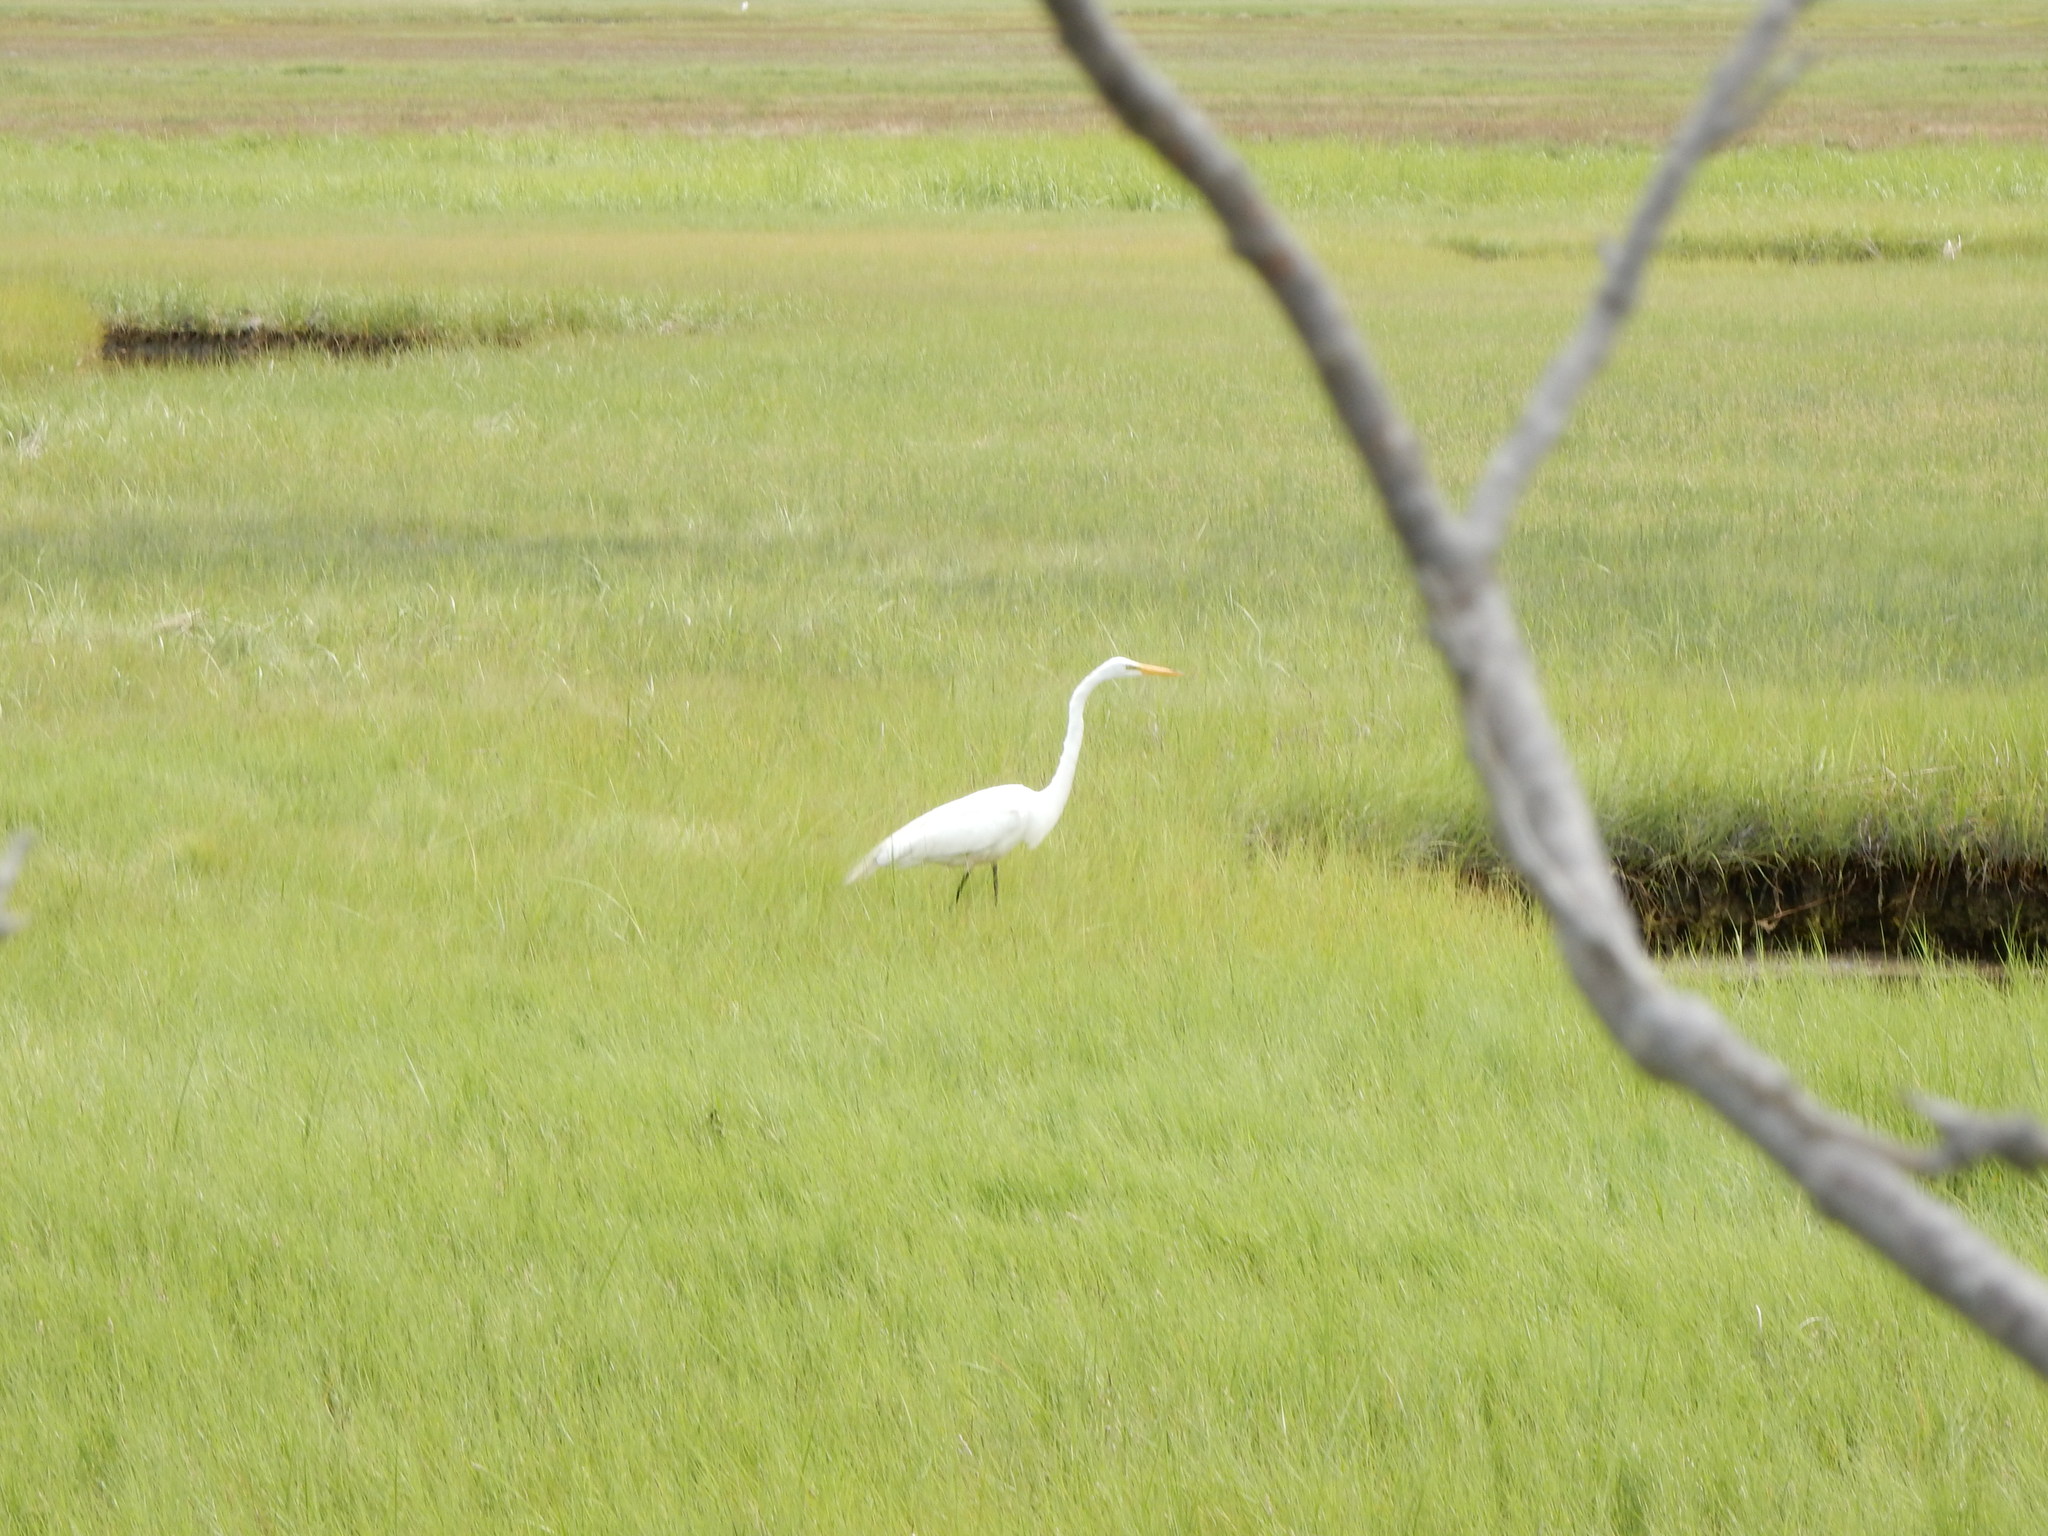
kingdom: Animalia
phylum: Chordata
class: Aves
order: Pelecaniformes
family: Ardeidae
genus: Ardea
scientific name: Ardea alba
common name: Great egret
